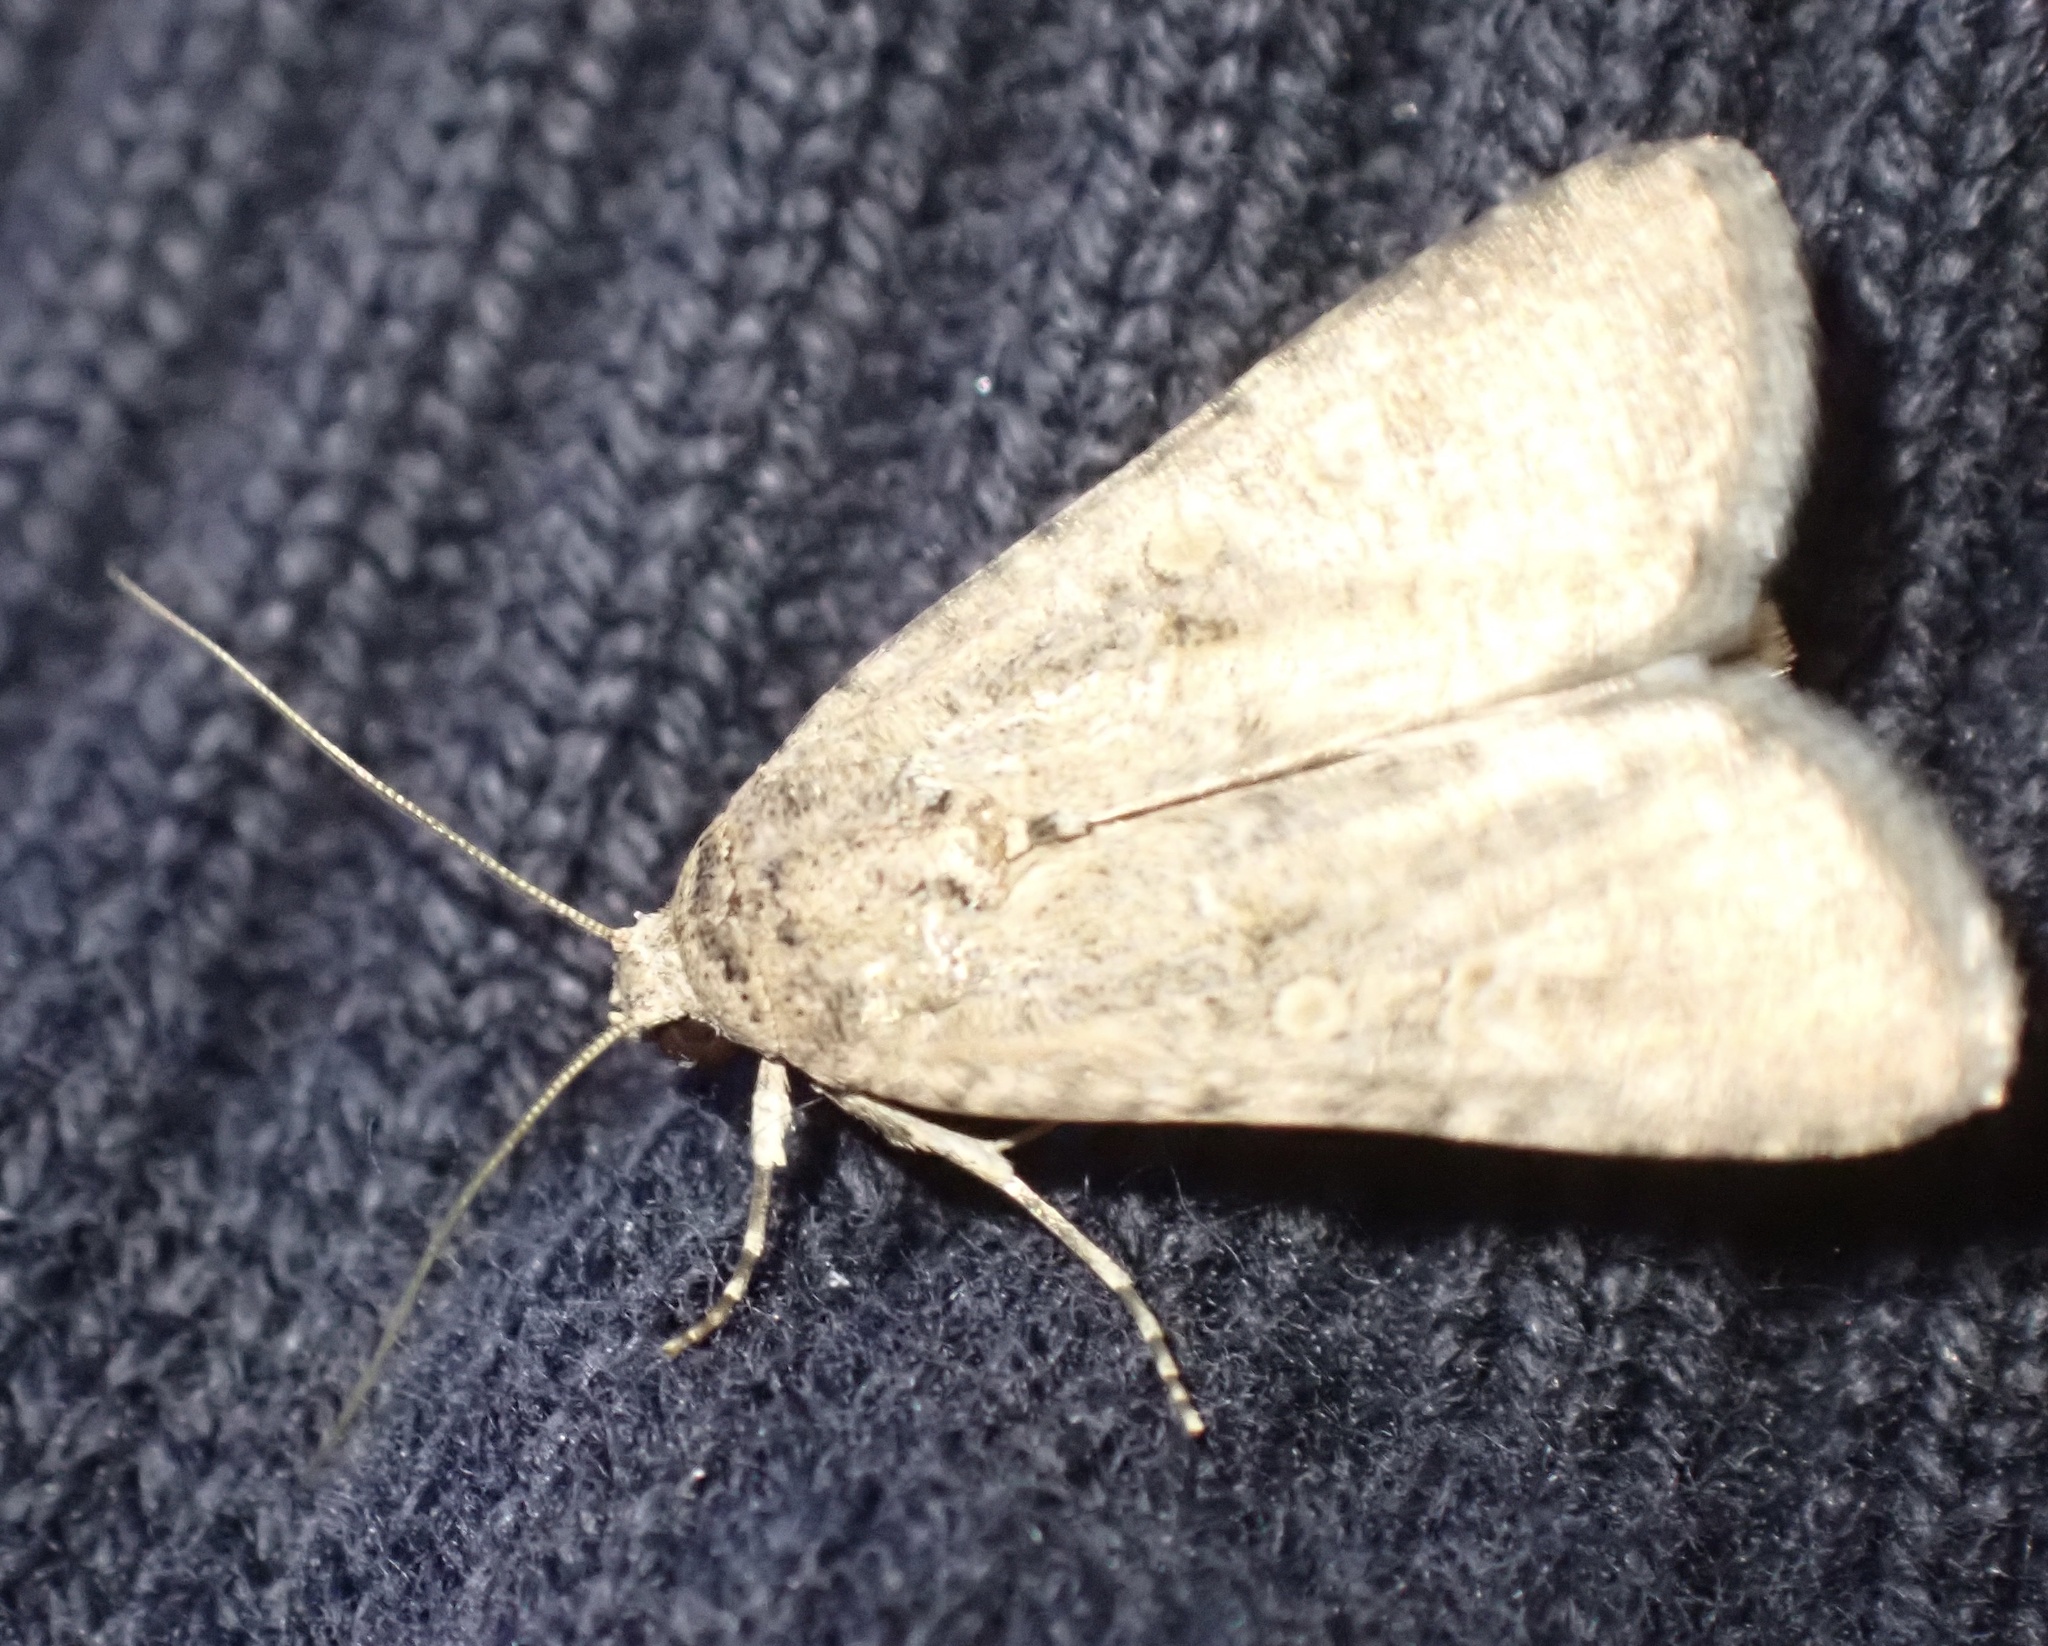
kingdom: Animalia
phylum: Arthropoda
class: Insecta
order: Lepidoptera
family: Noctuidae
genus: Spodoptera
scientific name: Spodoptera exigua
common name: Beet armyworm
